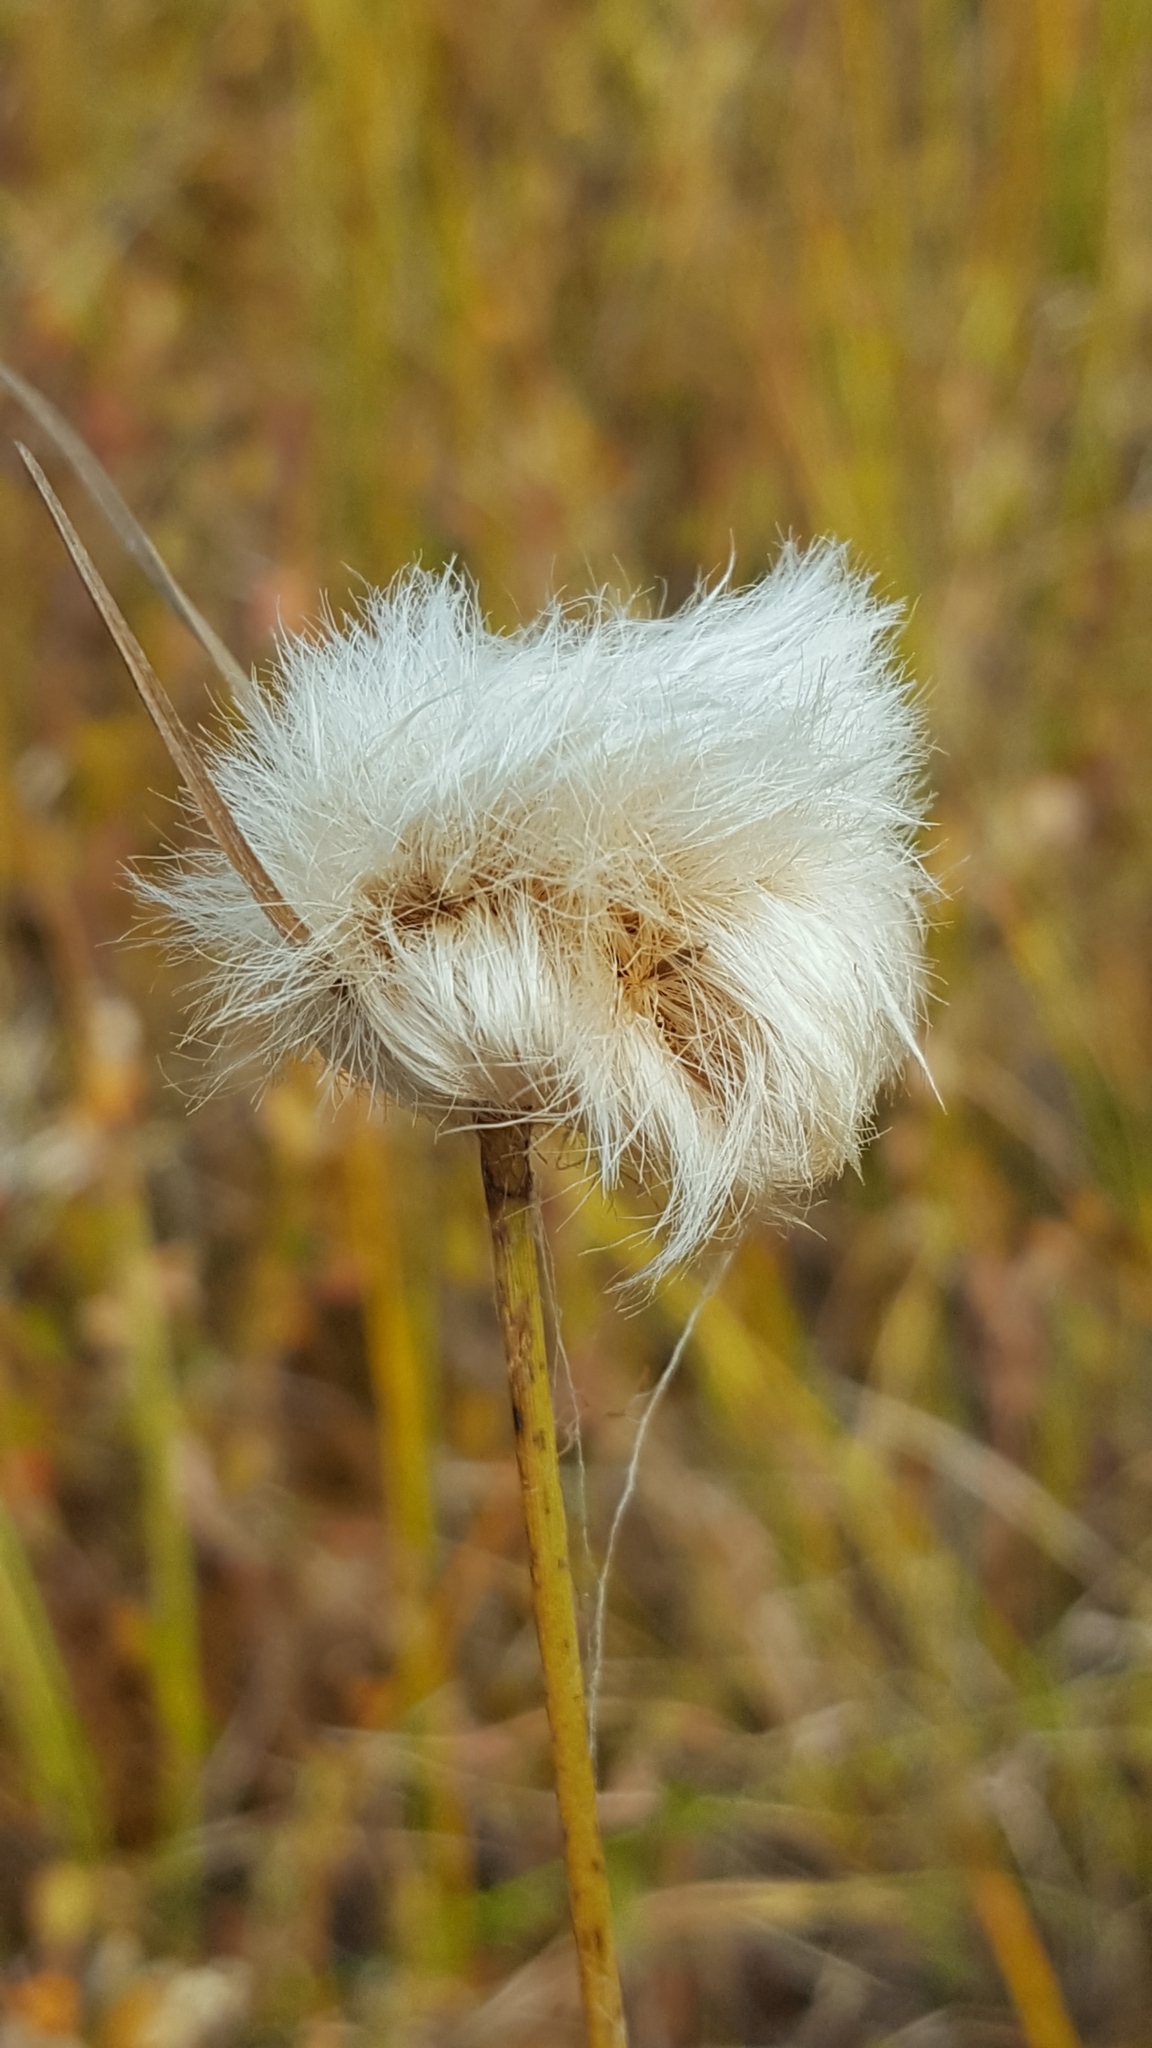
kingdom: Plantae
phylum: Tracheophyta
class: Liliopsida
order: Poales
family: Cyperaceae
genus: Eriophorum
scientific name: Eriophorum virginicum
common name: Tawny cottongrass
